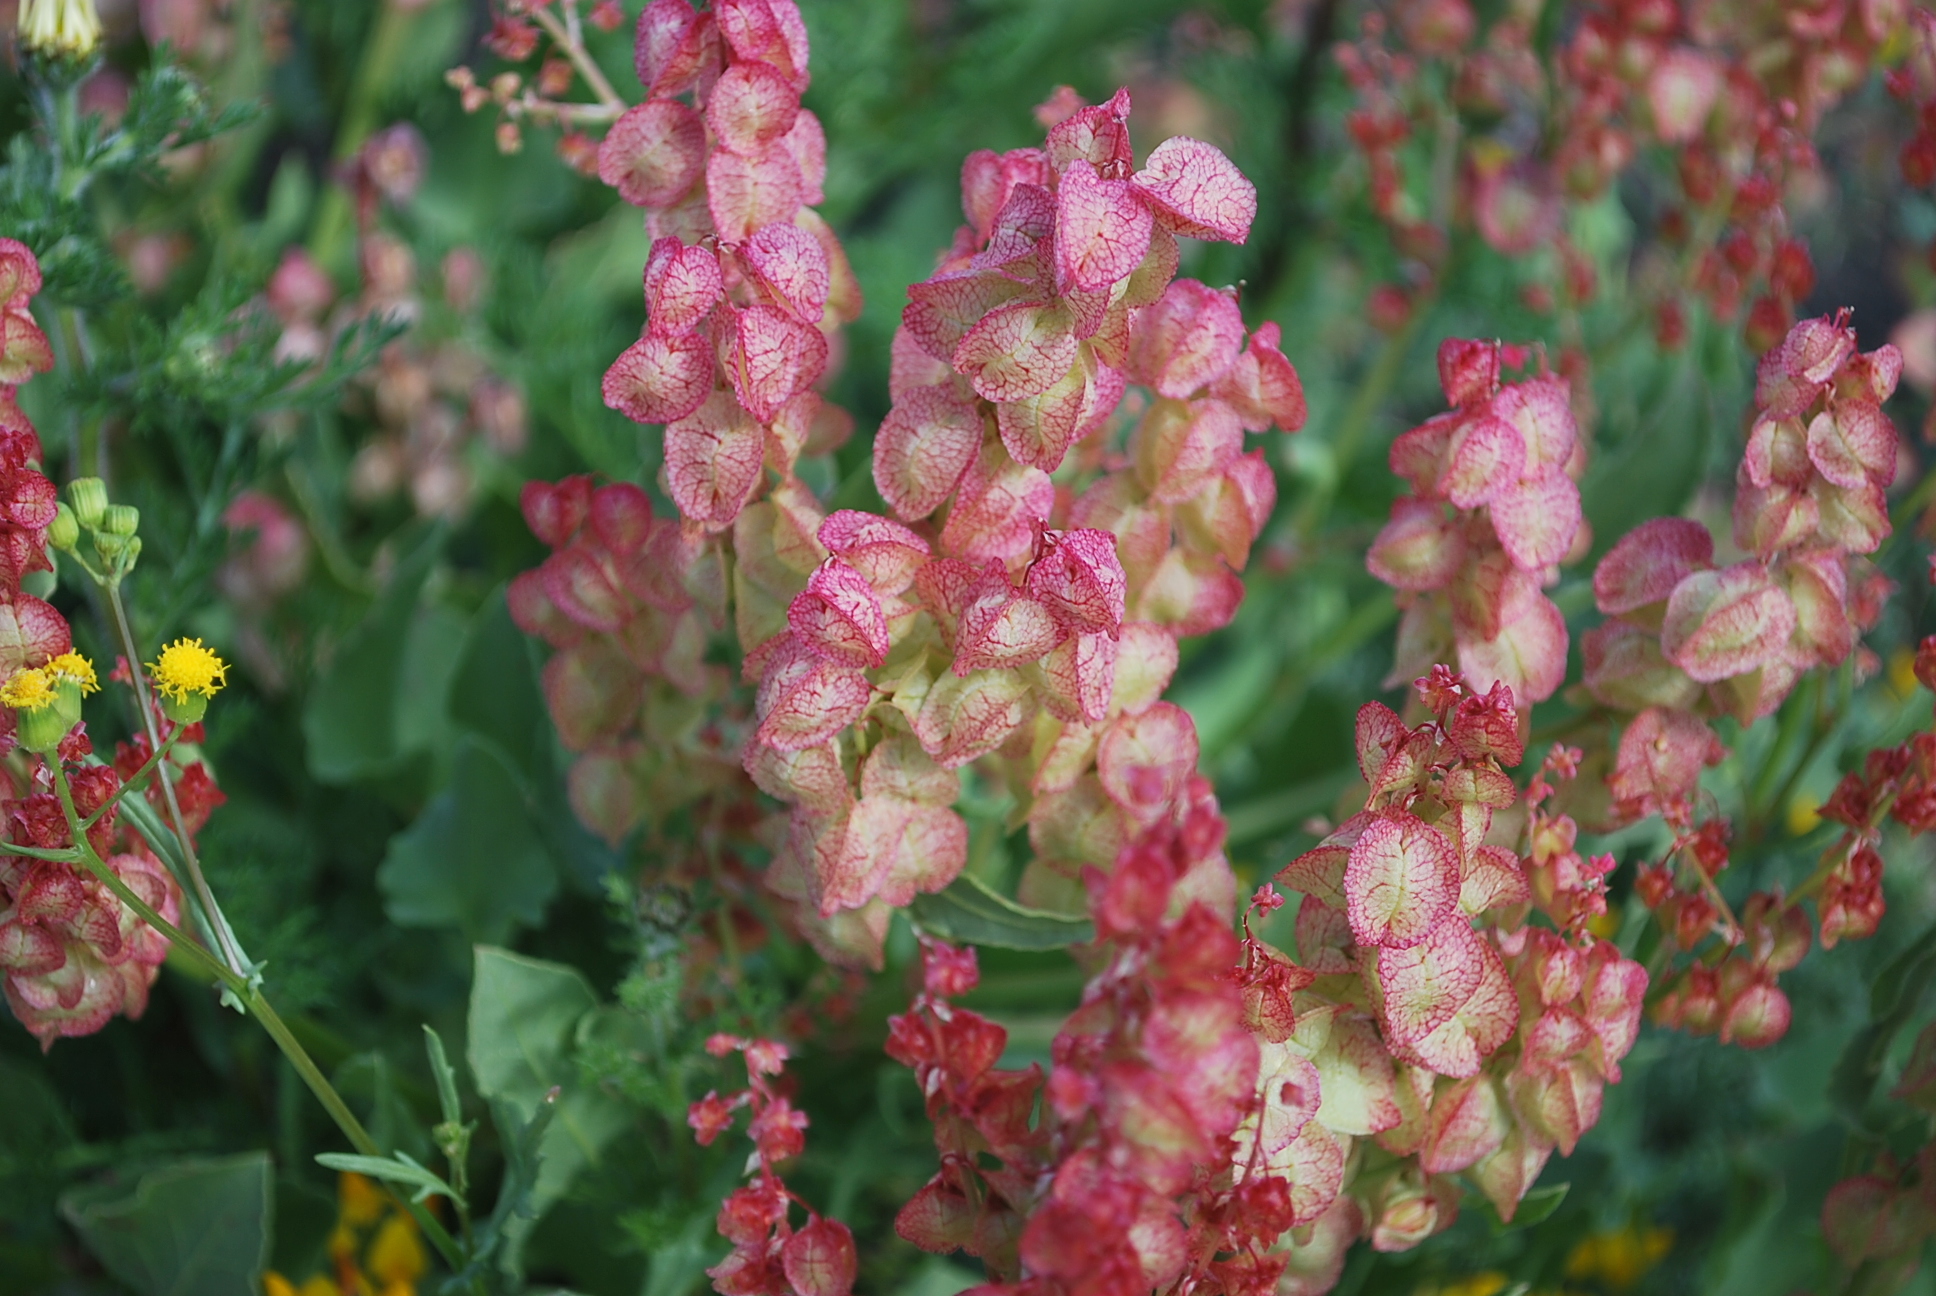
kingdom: Plantae
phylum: Tracheophyta
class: Magnoliopsida
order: Caryophyllales
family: Polygonaceae
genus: Rumex
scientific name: Rumex vesicarius
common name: Bladder dock
